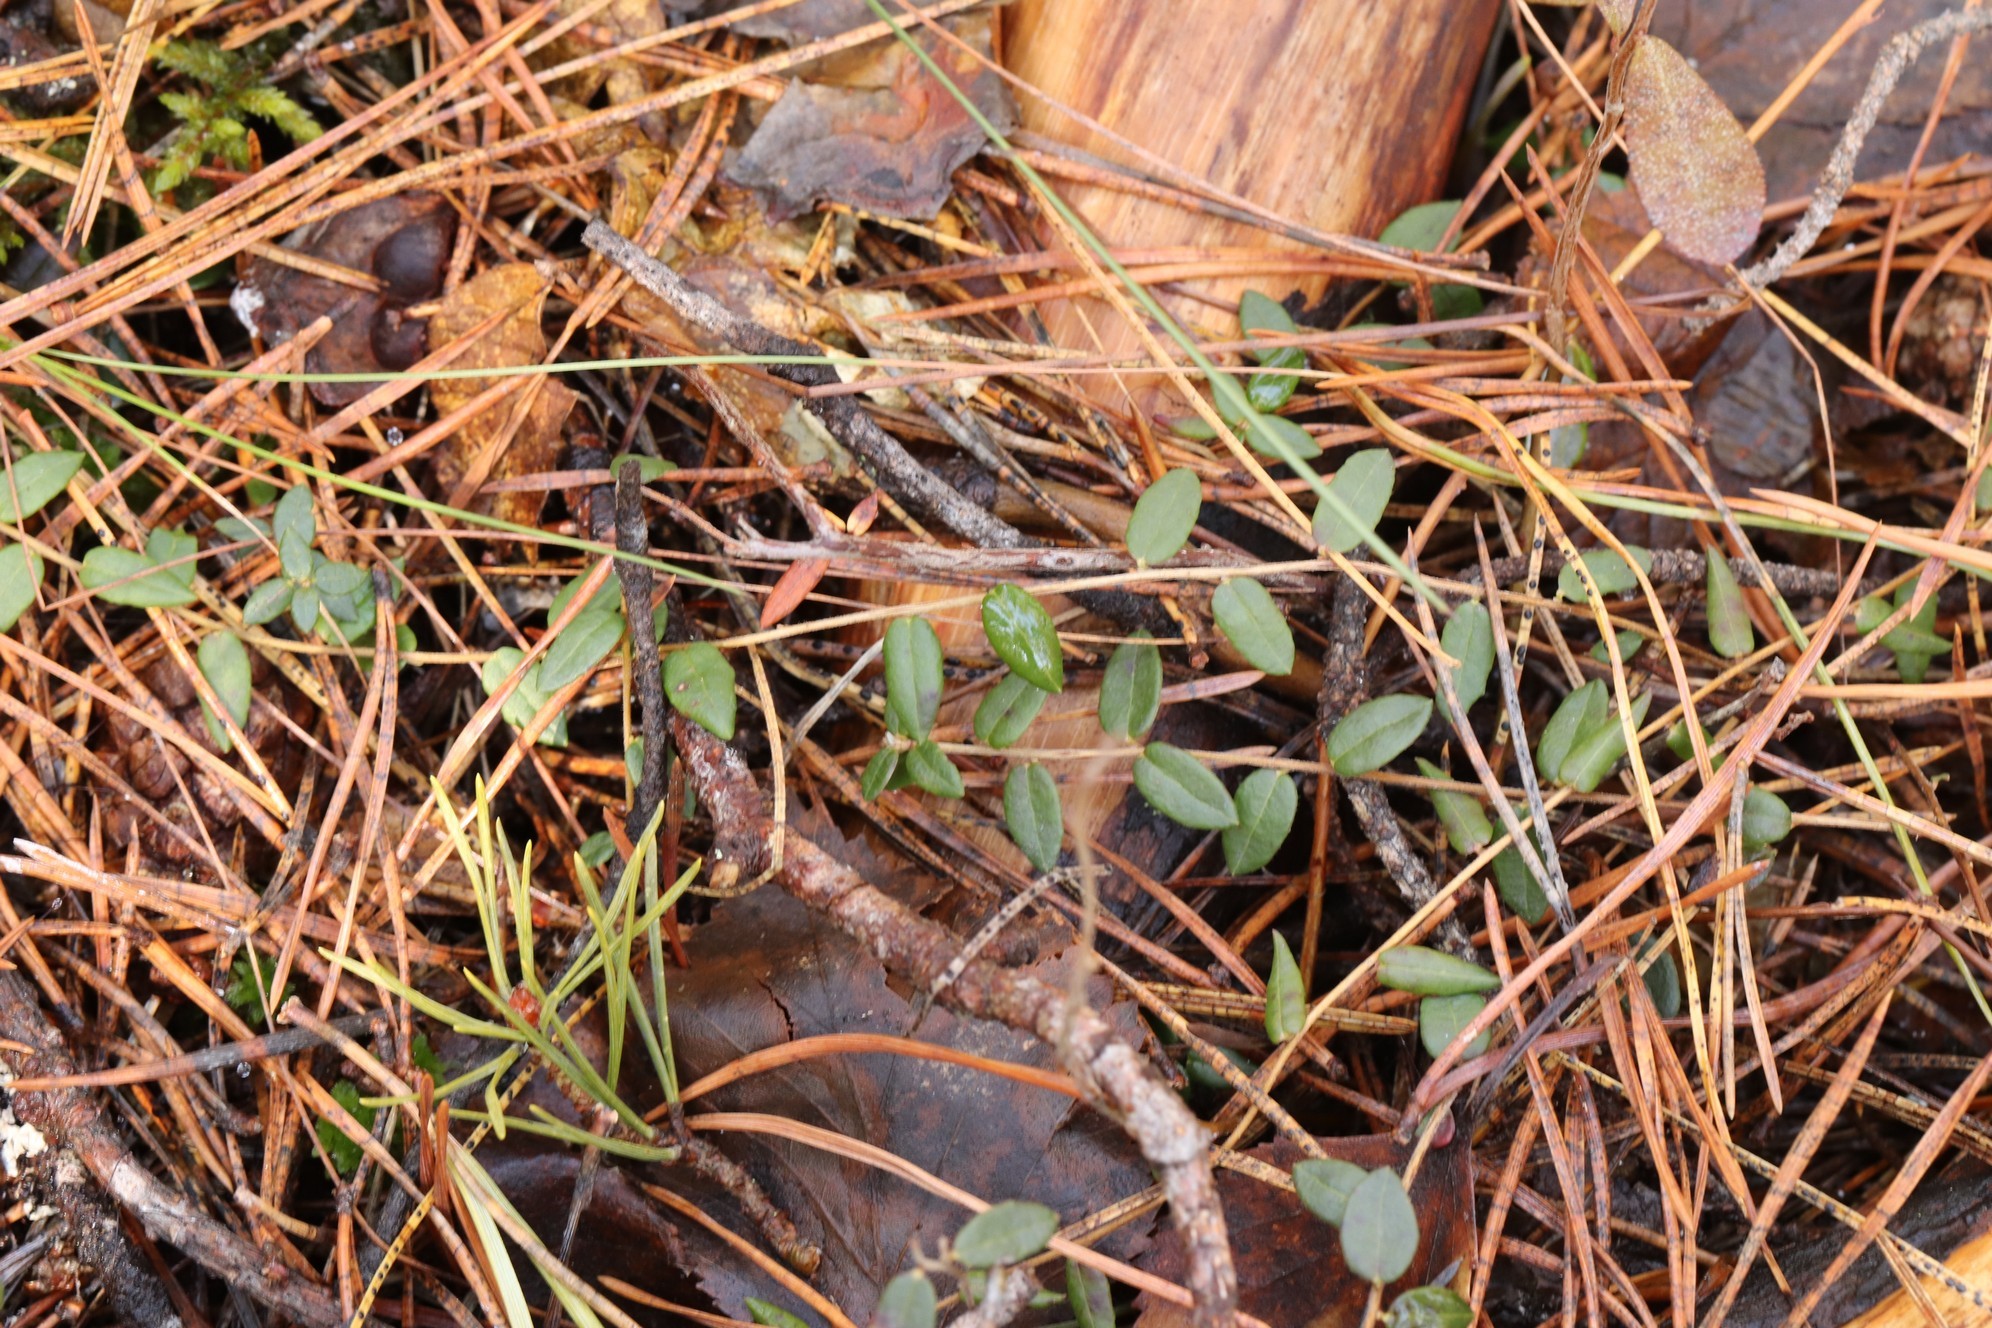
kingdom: Plantae
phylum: Tracheophyta
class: Magnoliopsida
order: Ericales
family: Ericaceae
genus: Vaccinium
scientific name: Vaccinium oxycoccos
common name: Cranberry
